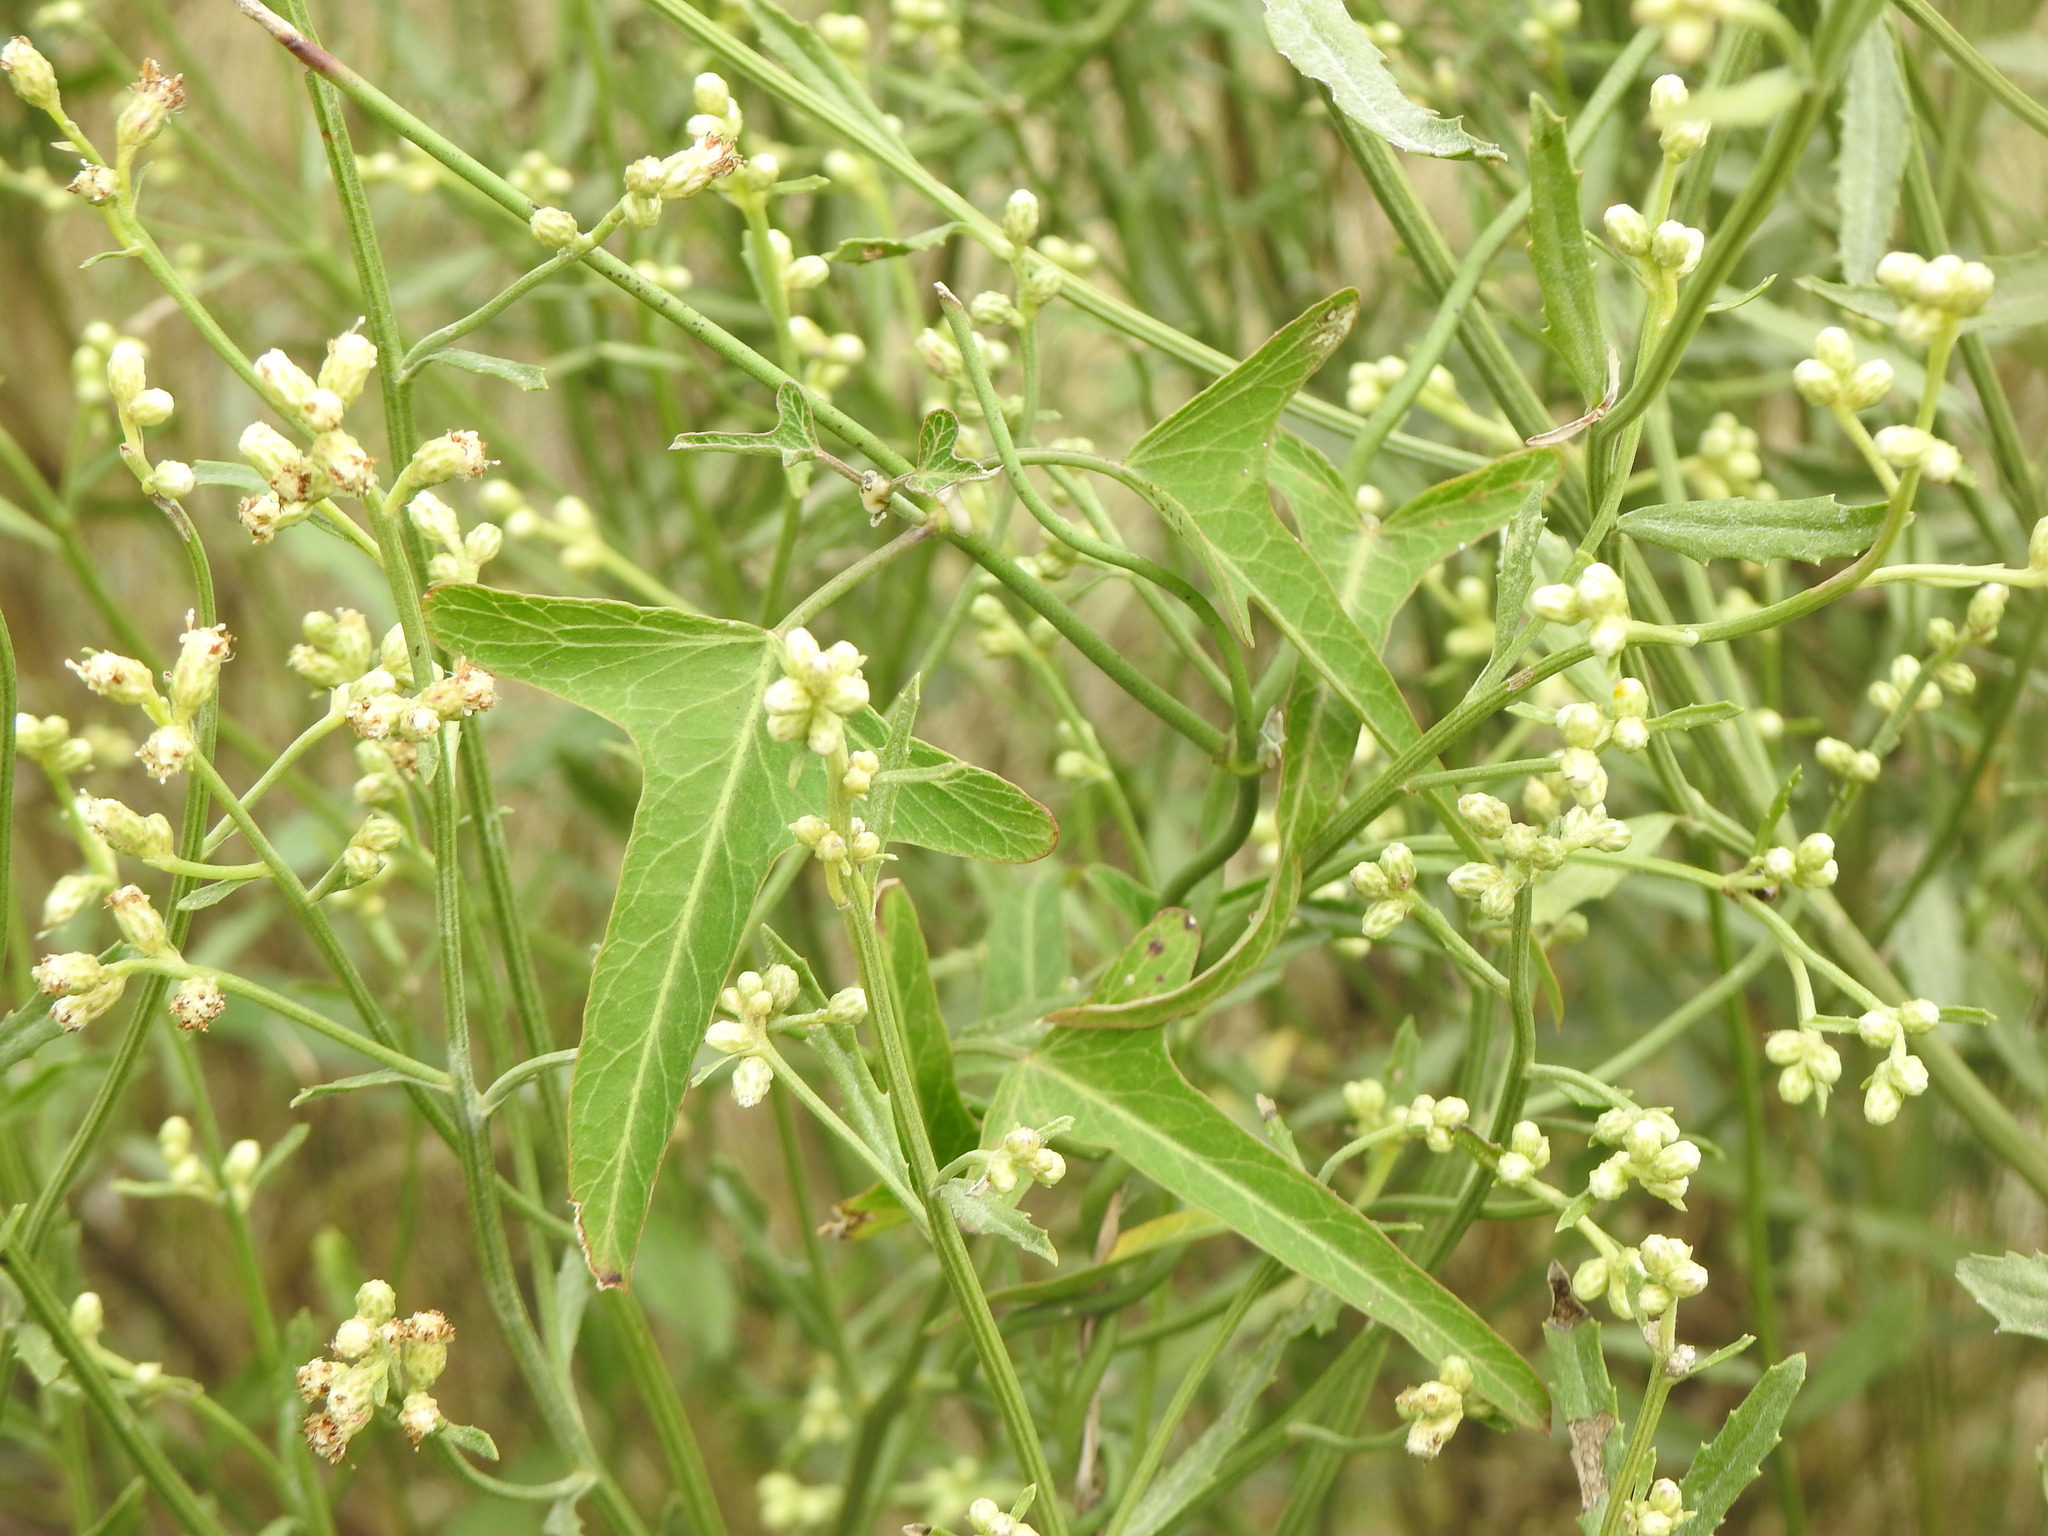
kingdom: Plantae
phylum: Tracheophyta
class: Magnoliopsida
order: Asterales
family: Asteraceae
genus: Baccharis
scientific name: Baccharis spicata
